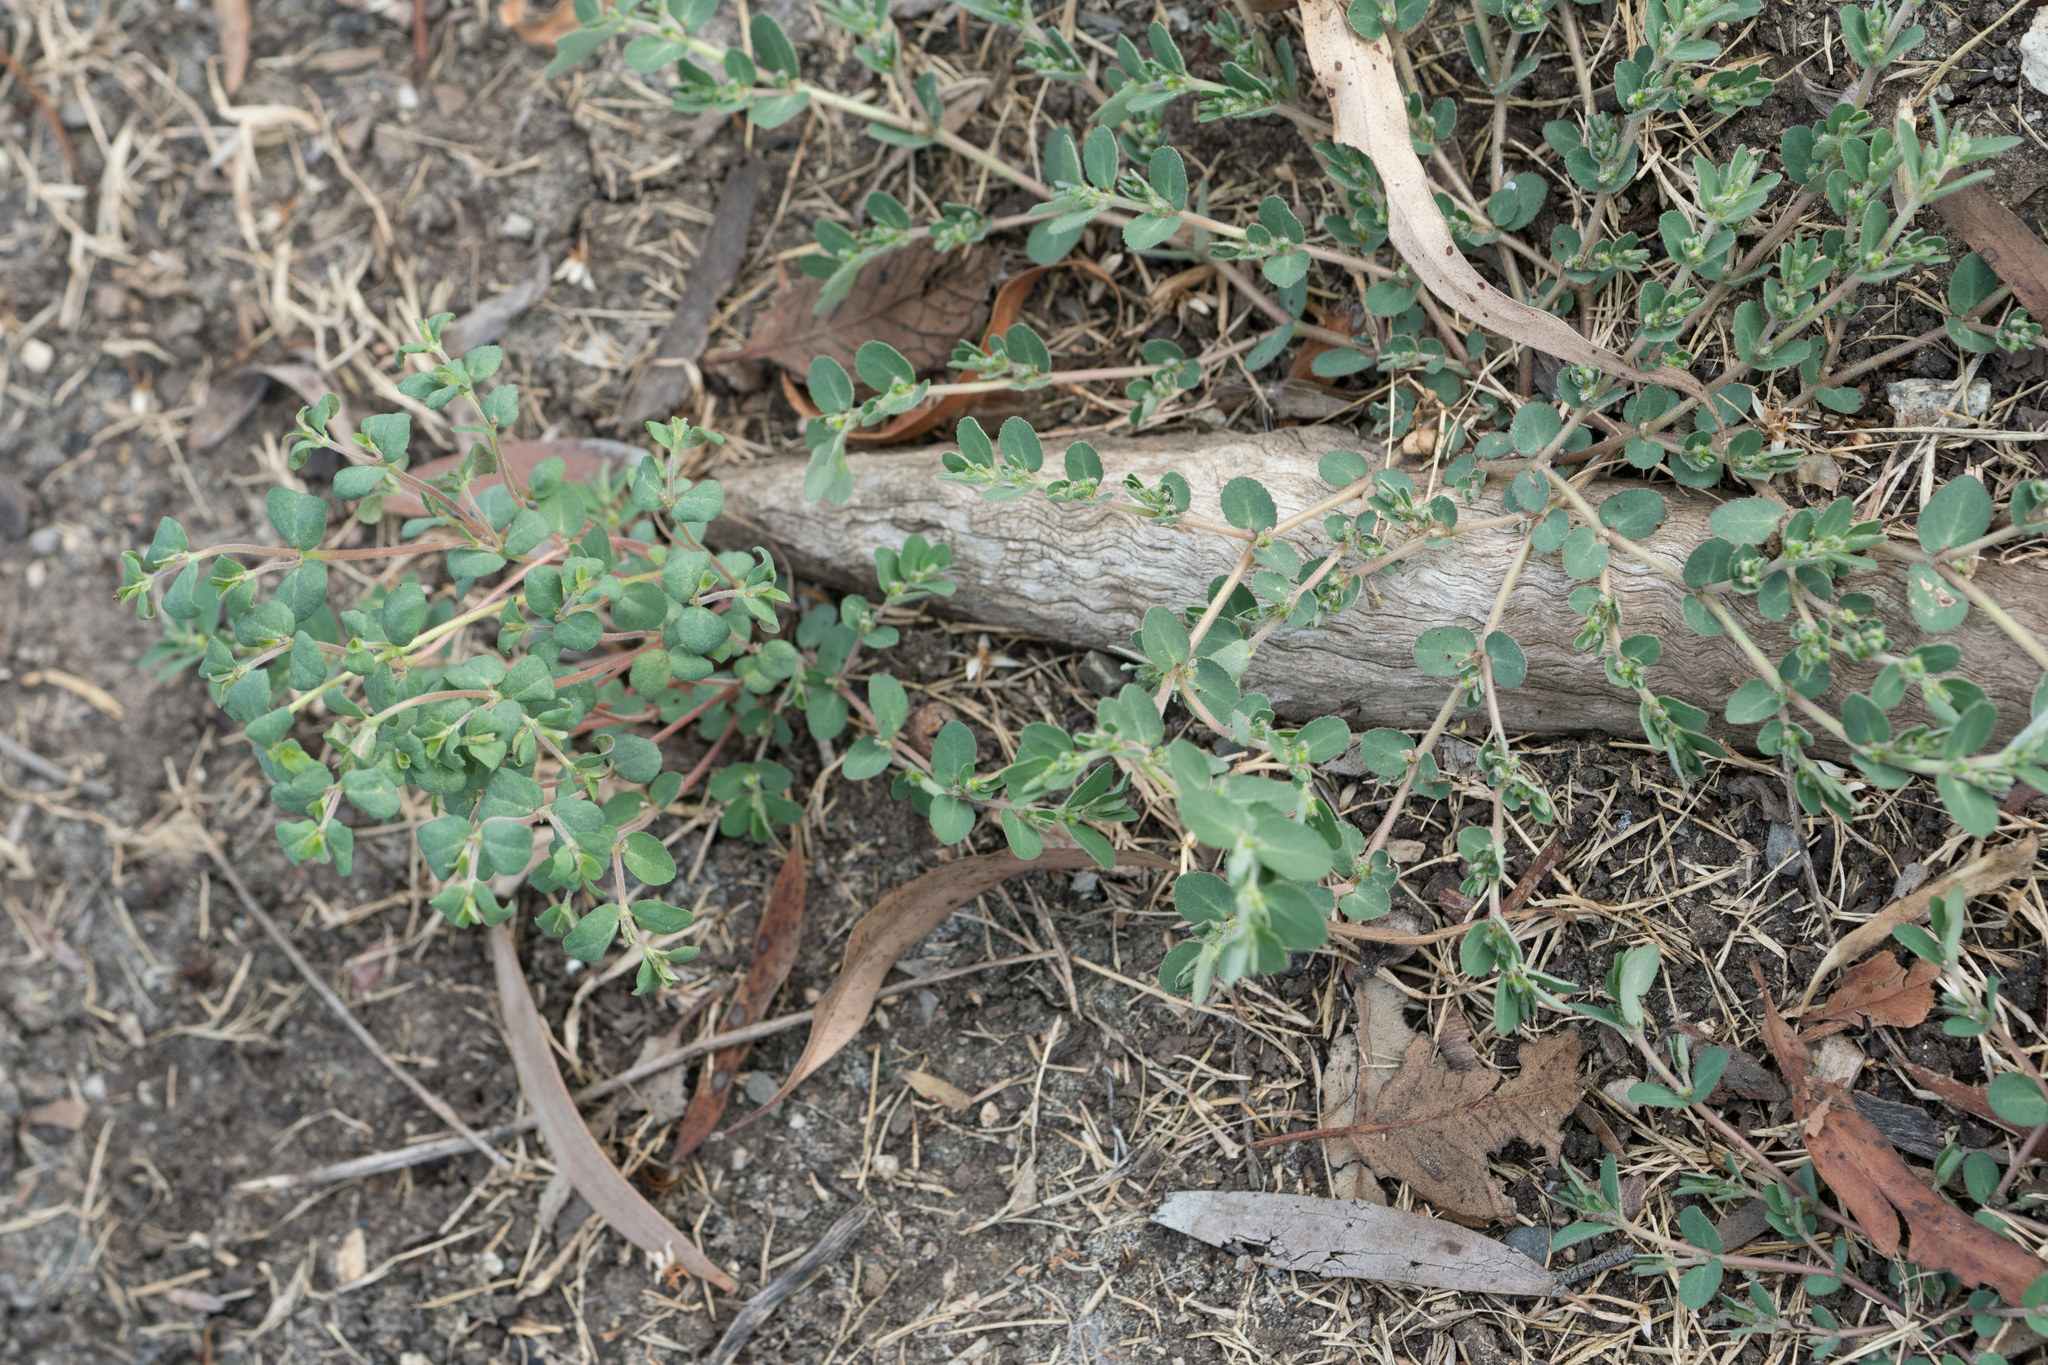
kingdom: Plantae
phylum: Tracheophyta
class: Magnoliopsida
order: Malpighiales
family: Euphorbiaceae
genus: Euphorbia
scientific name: Euphorbia prostrata
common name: Prostrate sandmat
